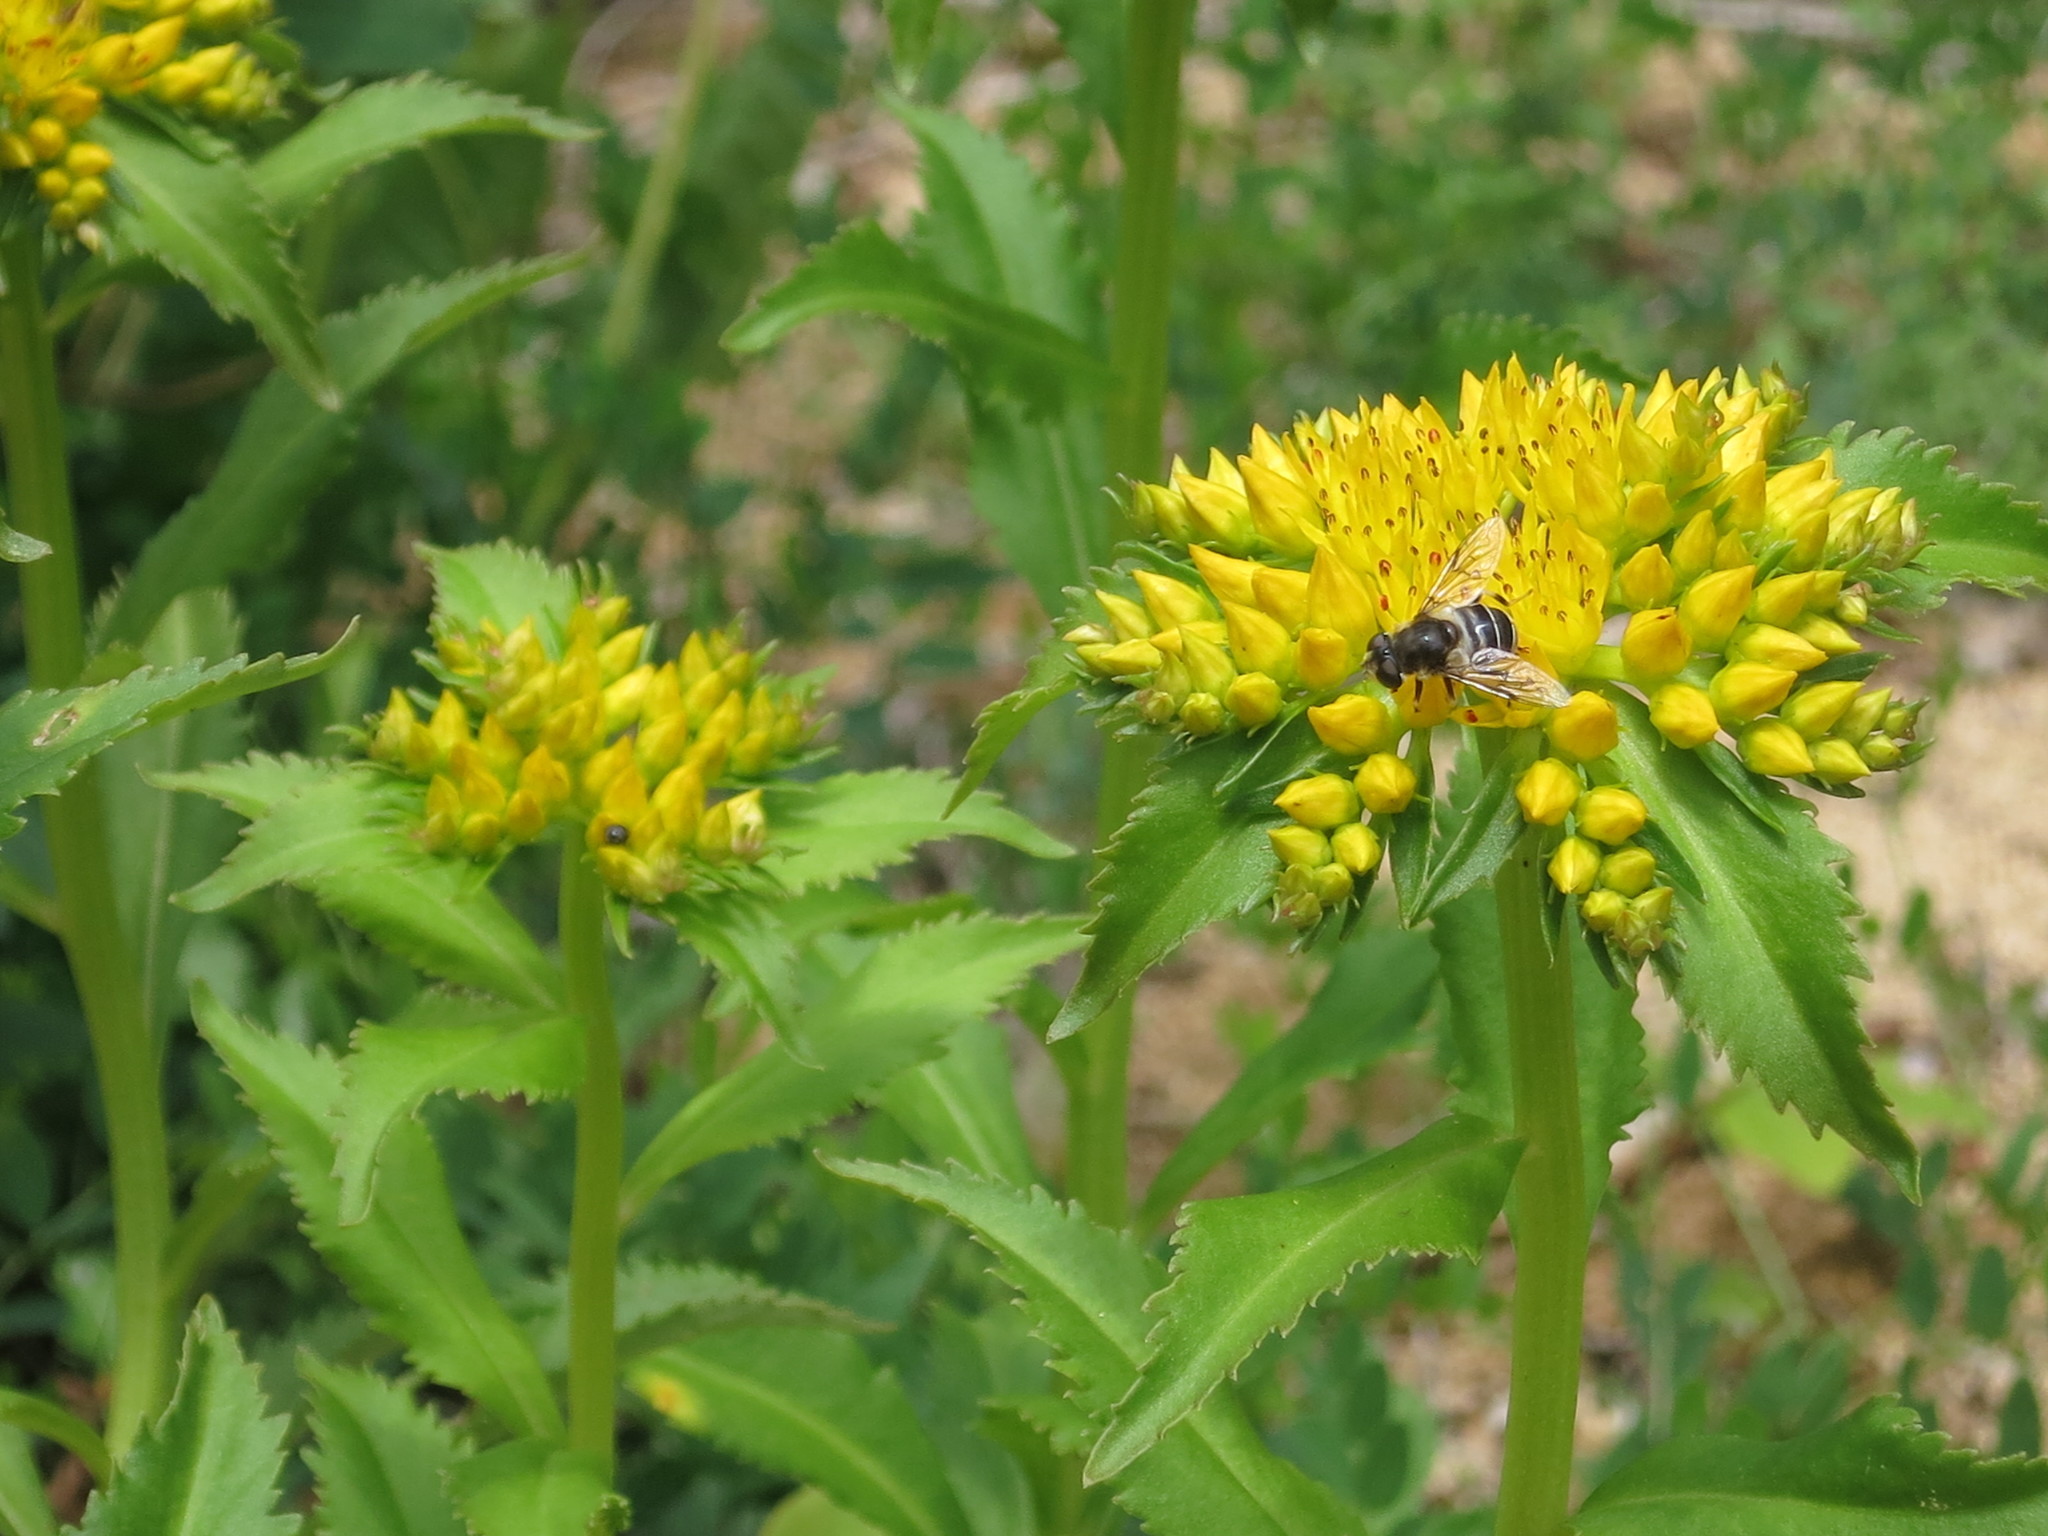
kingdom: Plantae
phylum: Tracheophyta
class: Magnoliopsida
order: Saxifragales
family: Crassulaceae
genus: Phedimus
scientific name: Phedimus aizoon
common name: Orpin aizoon
